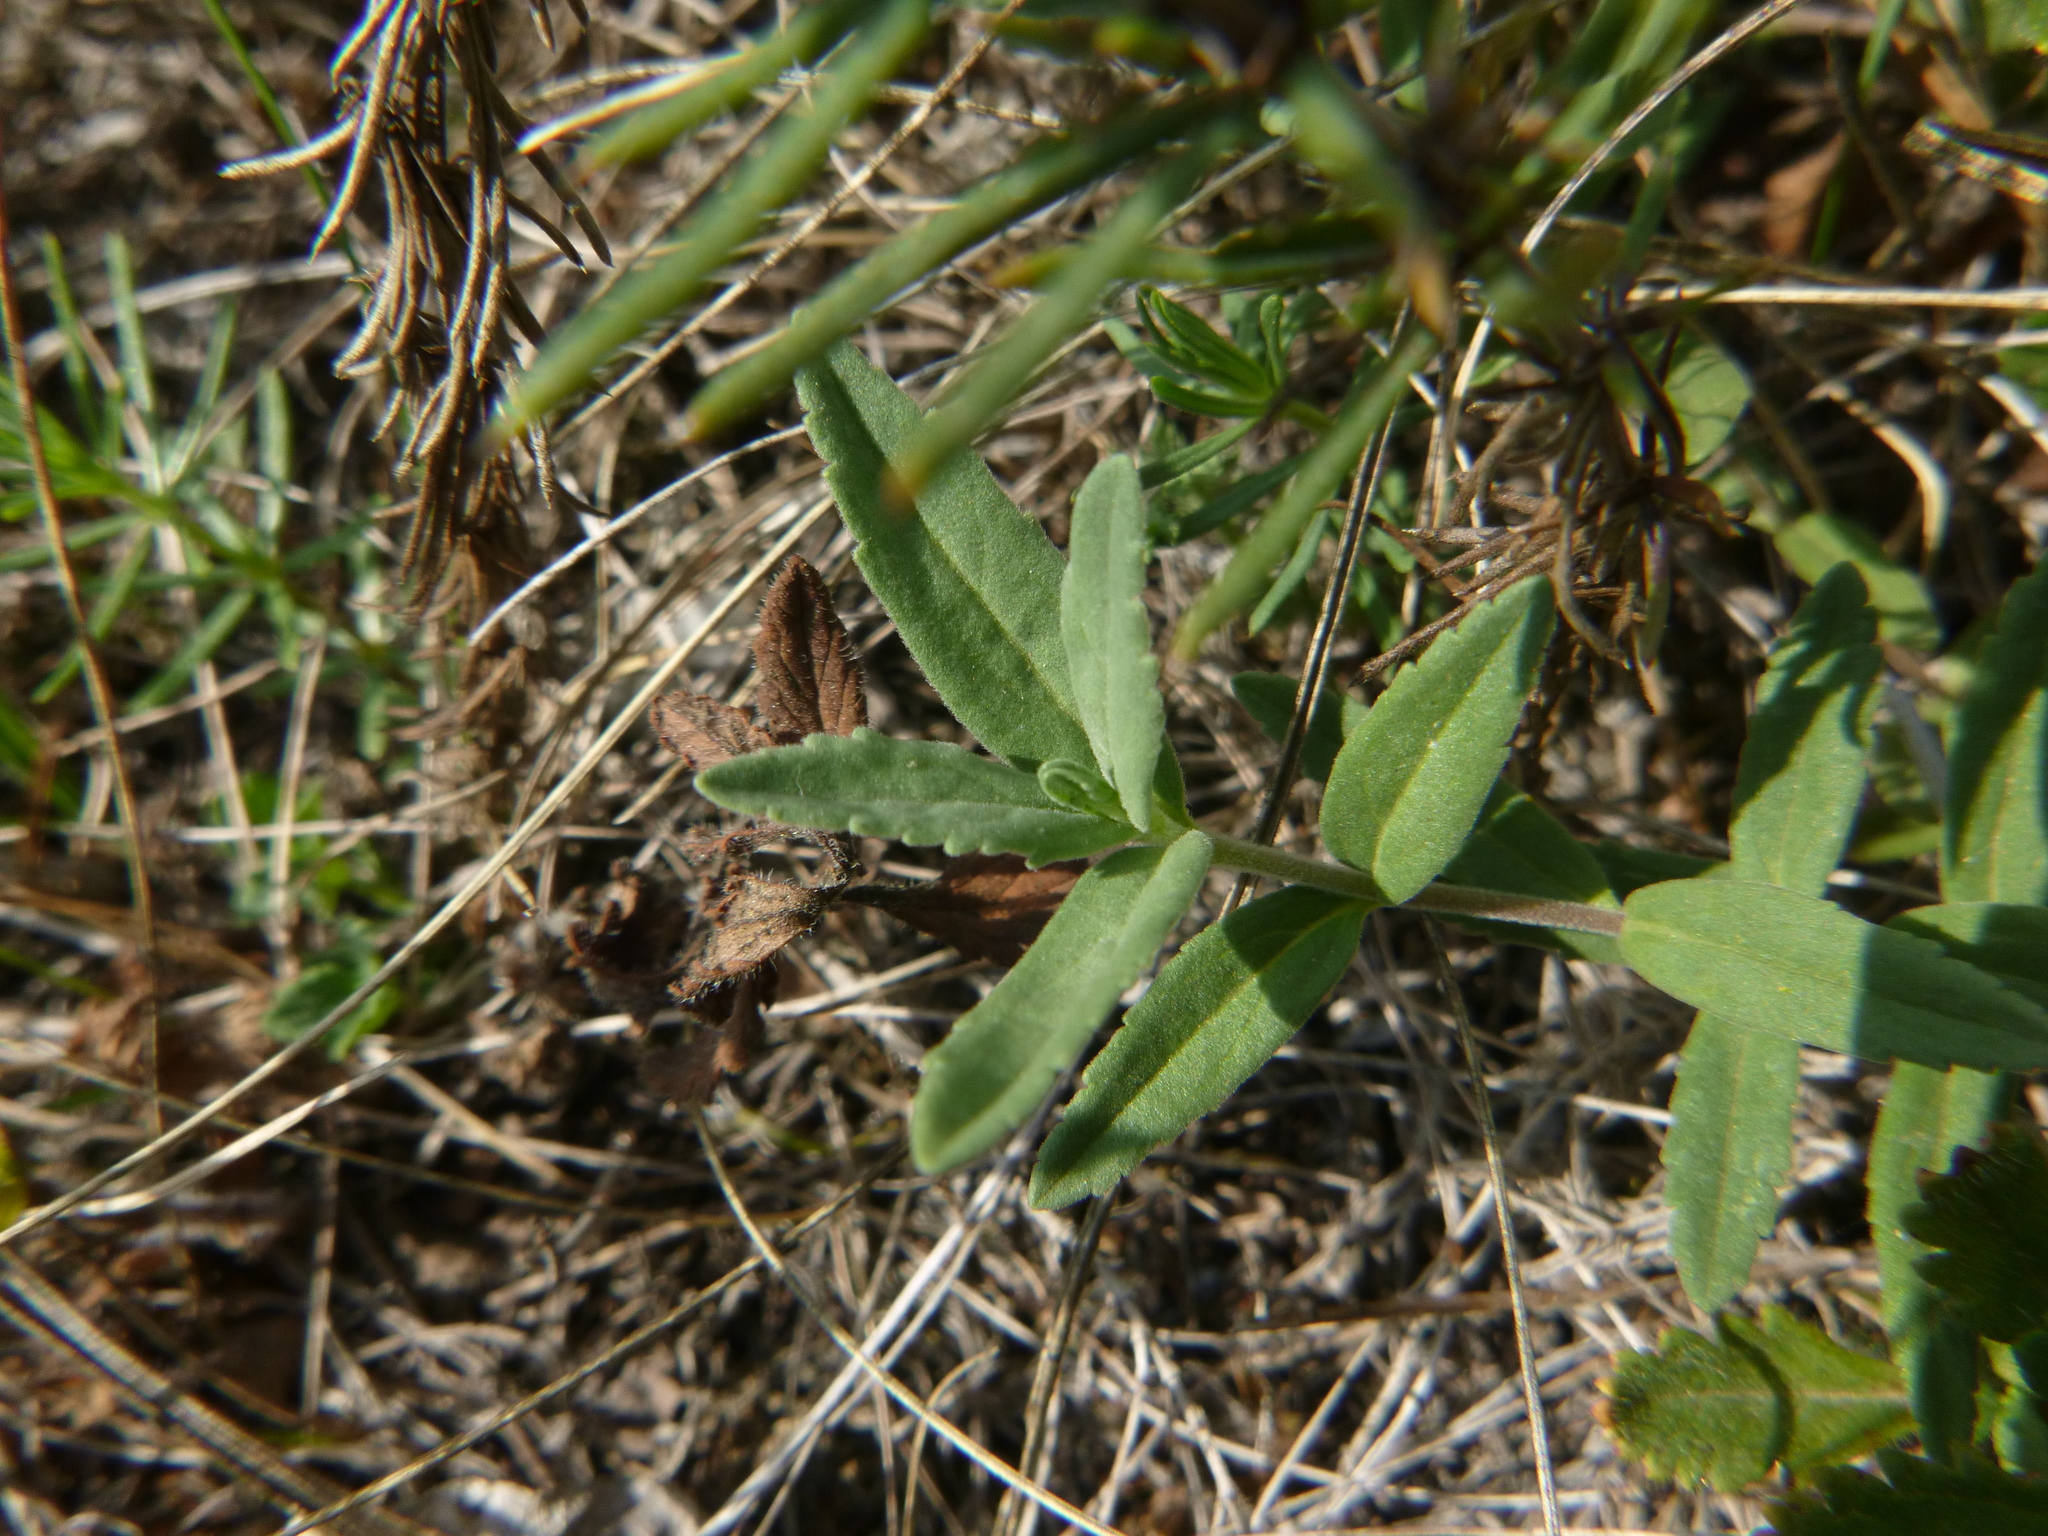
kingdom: Plantae
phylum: Tracheophyta
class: Magnoliopsida
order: Lamiales
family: Plantaginaceae
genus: Veronica
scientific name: Veronica prostrata
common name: Prostrate speedwell
